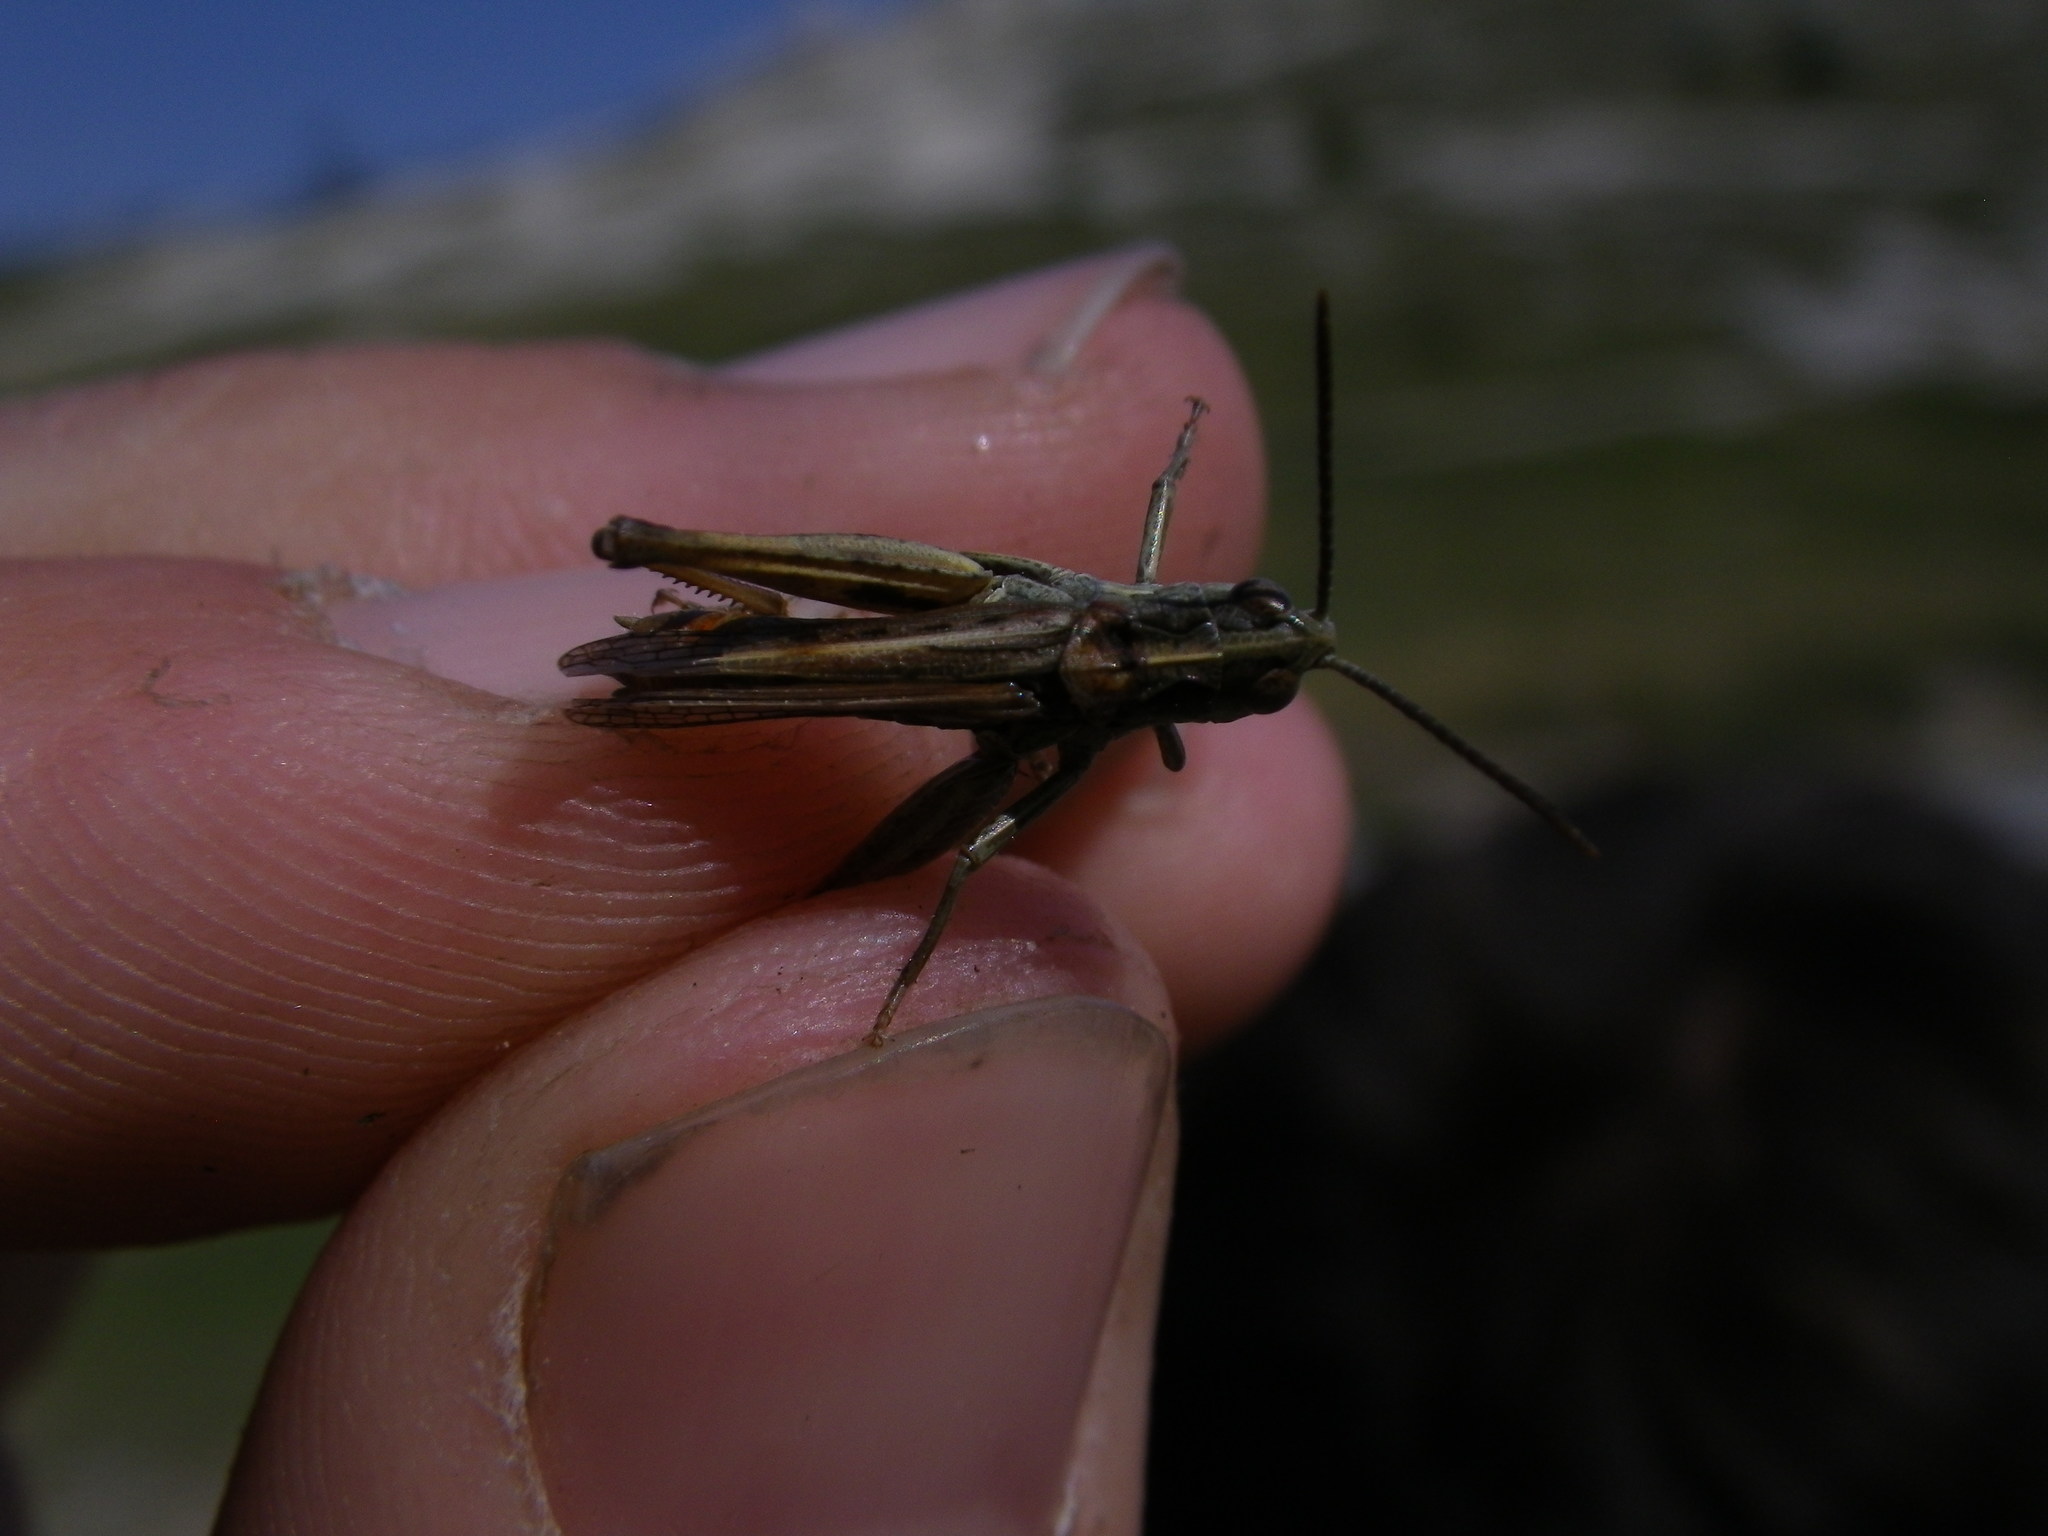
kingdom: Animalia
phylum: Arthropoda
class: Insecta
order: Orthoptera
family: Acrididae
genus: Omocestus
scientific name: Omocestus haemorrhoidalis
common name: Orange-tipped grasshopper
